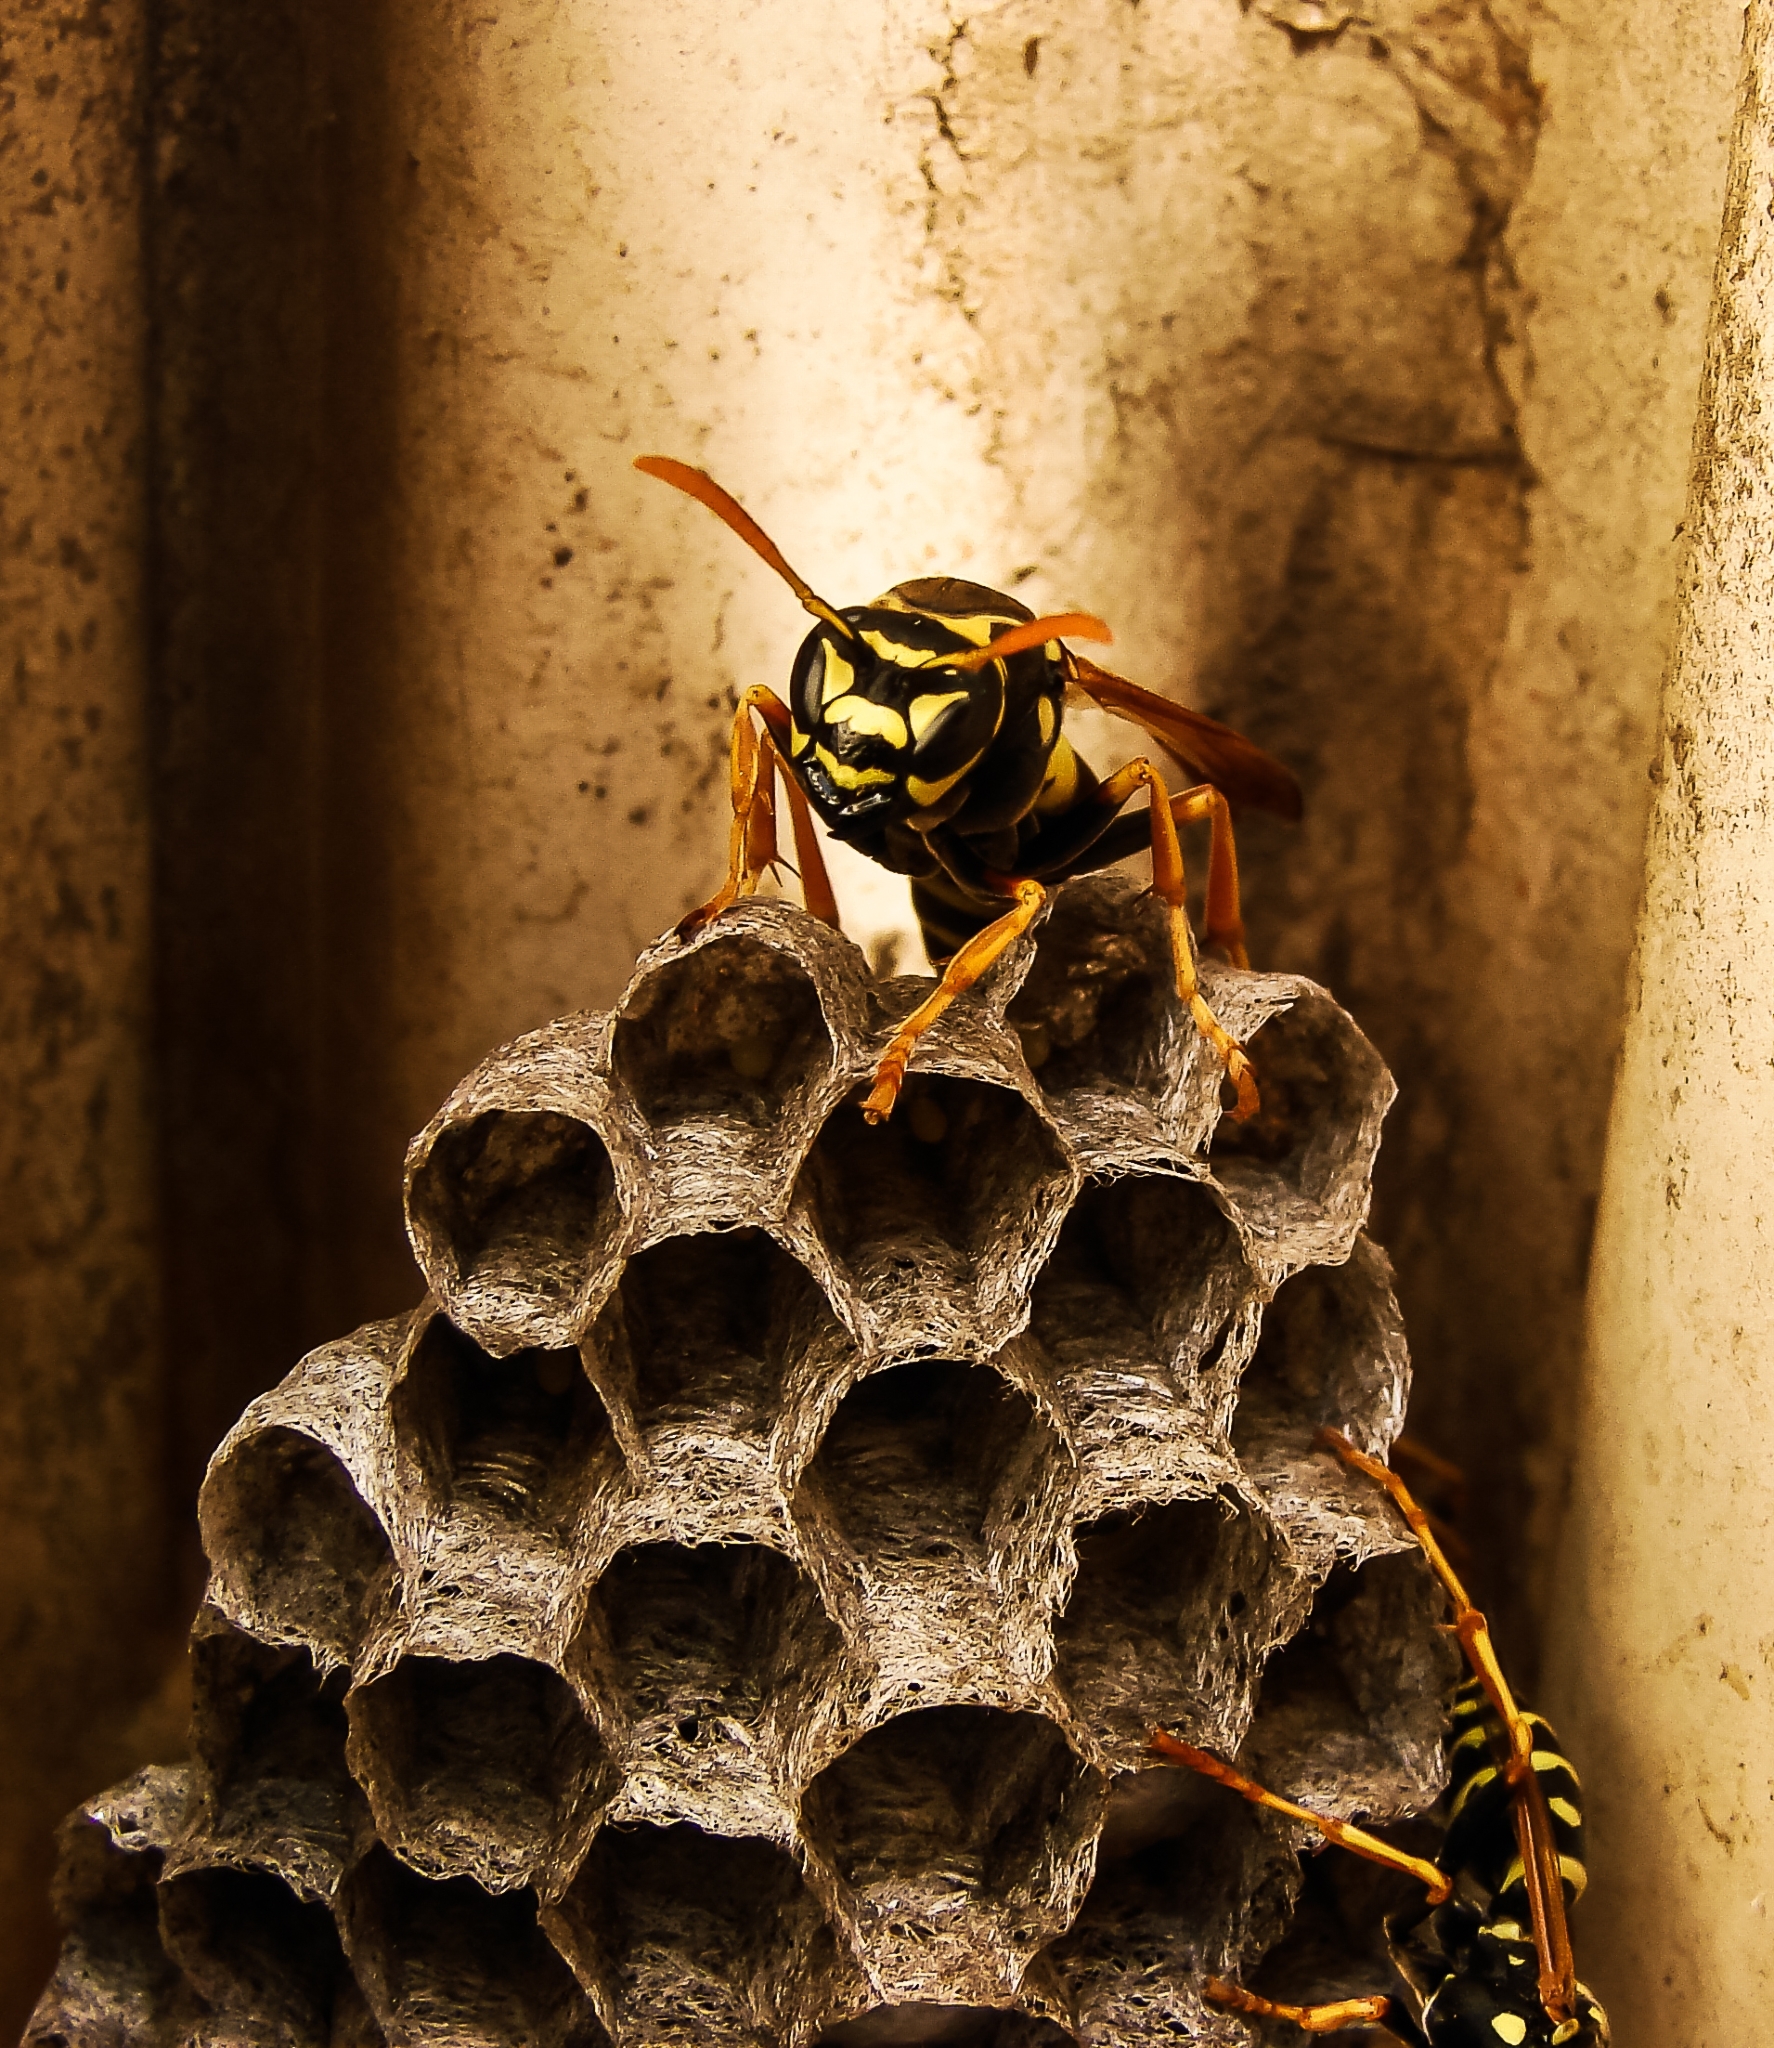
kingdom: Animalia
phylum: Arthropoda
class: Insecta
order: Hymenoptera
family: Eumenidae
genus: Polistes
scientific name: Polistes nimpha
